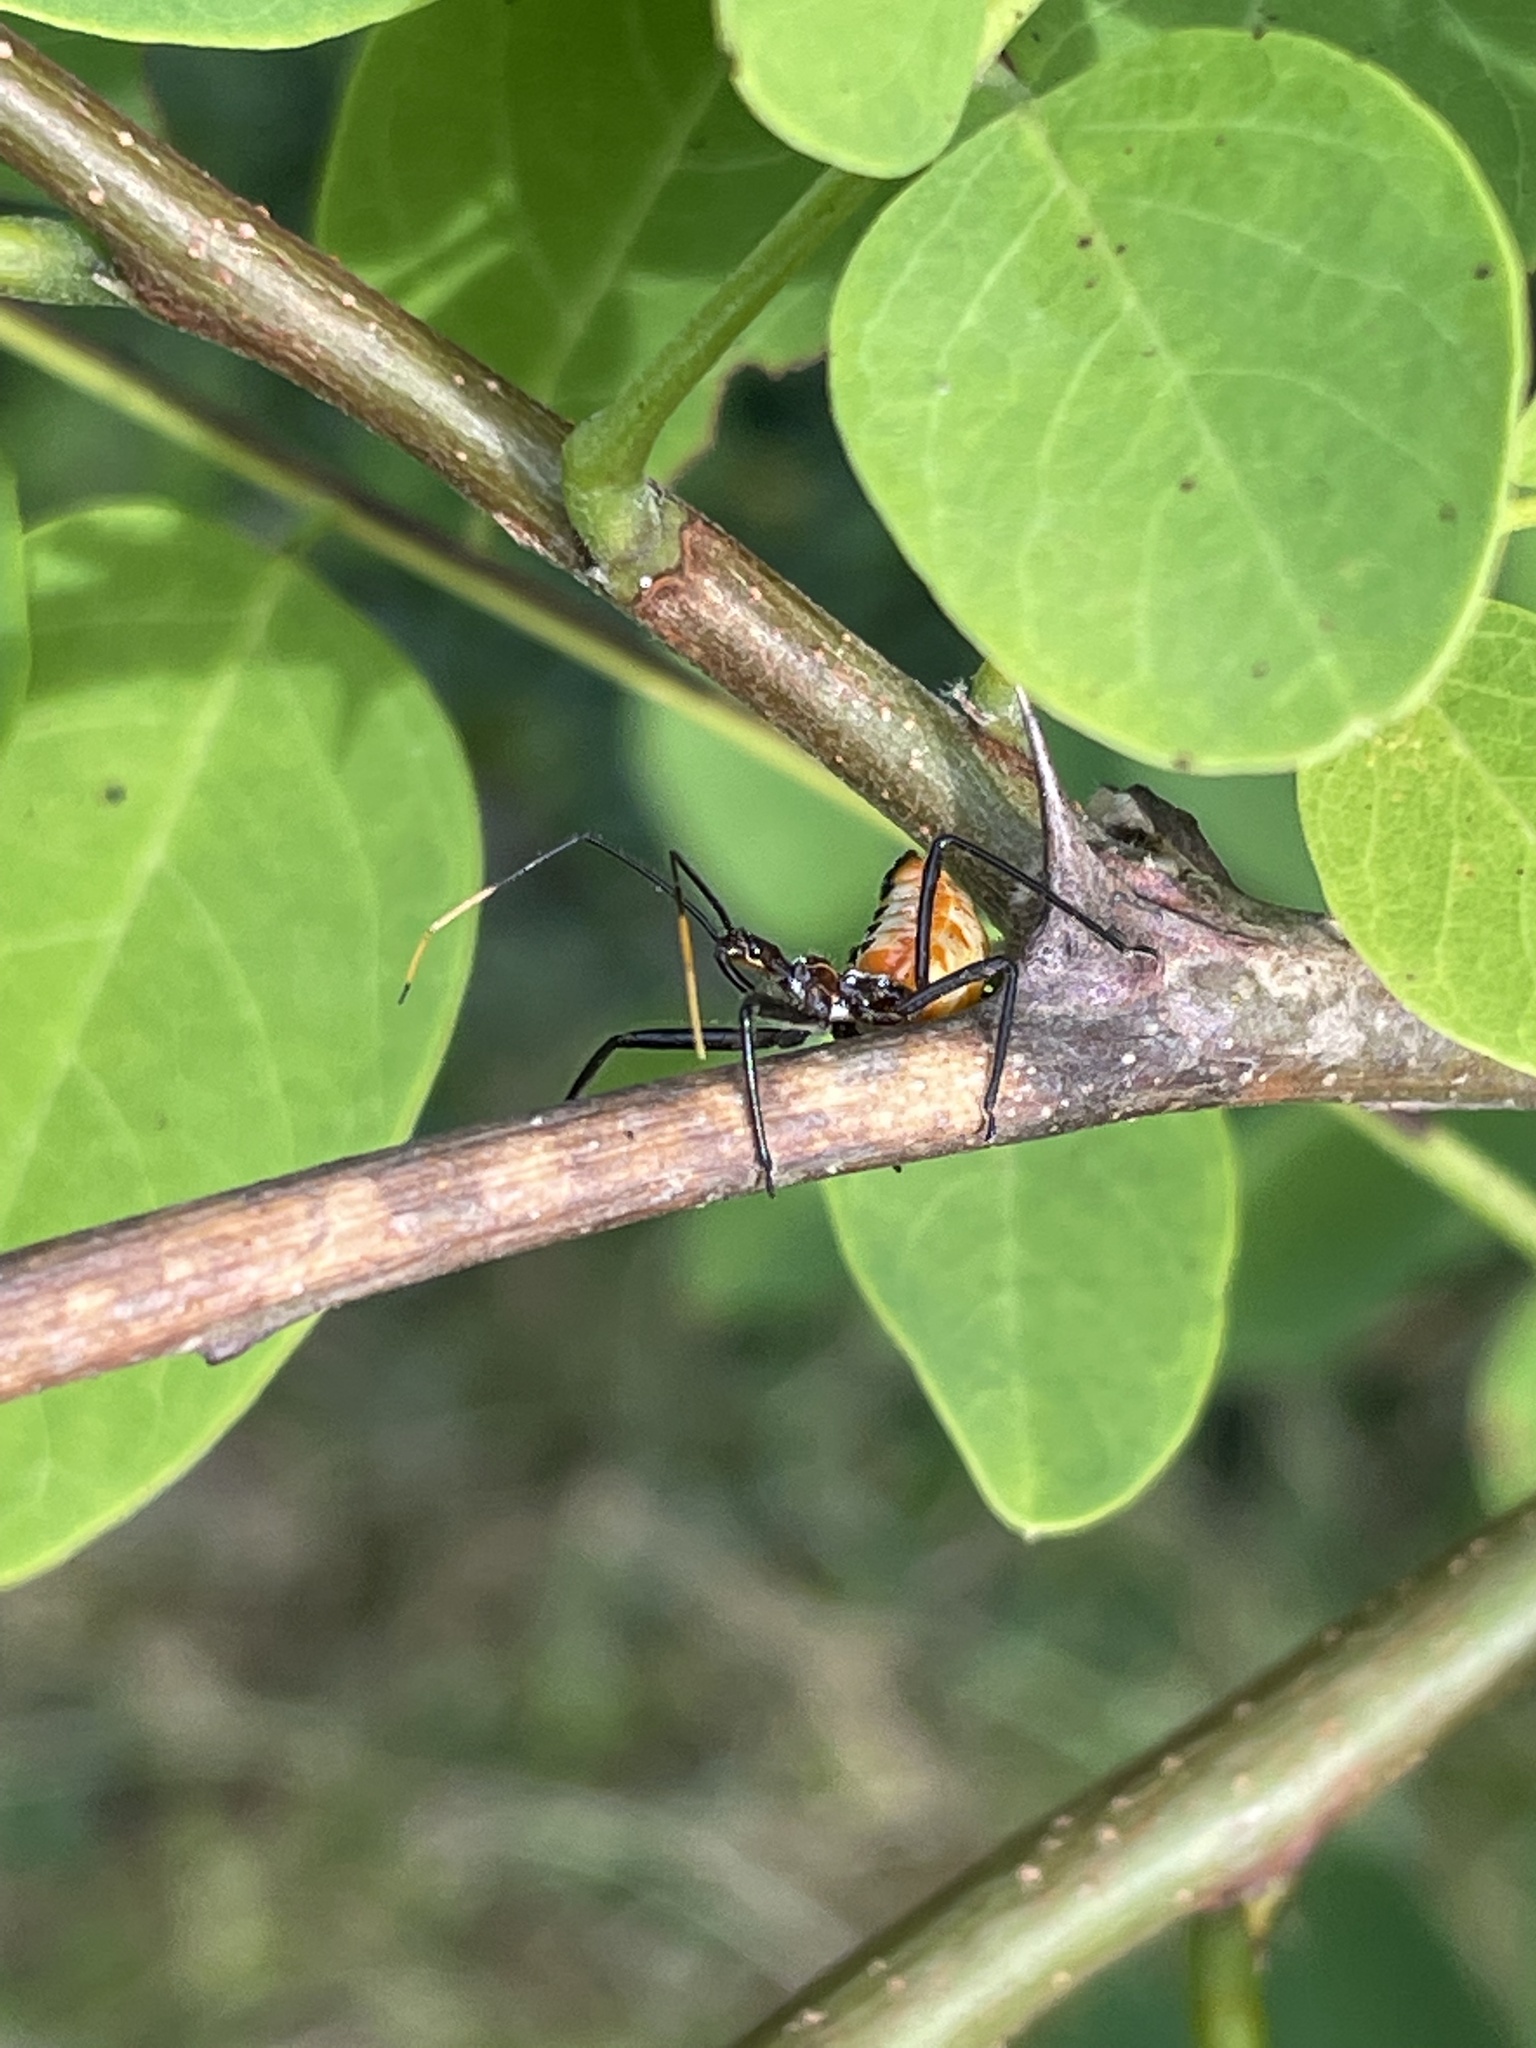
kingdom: Animalia
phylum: Arthropoda
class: Insecta
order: Hemiptera
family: Reduviidae
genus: Arilus
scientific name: Arilus cristatus
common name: North american wheel bug
